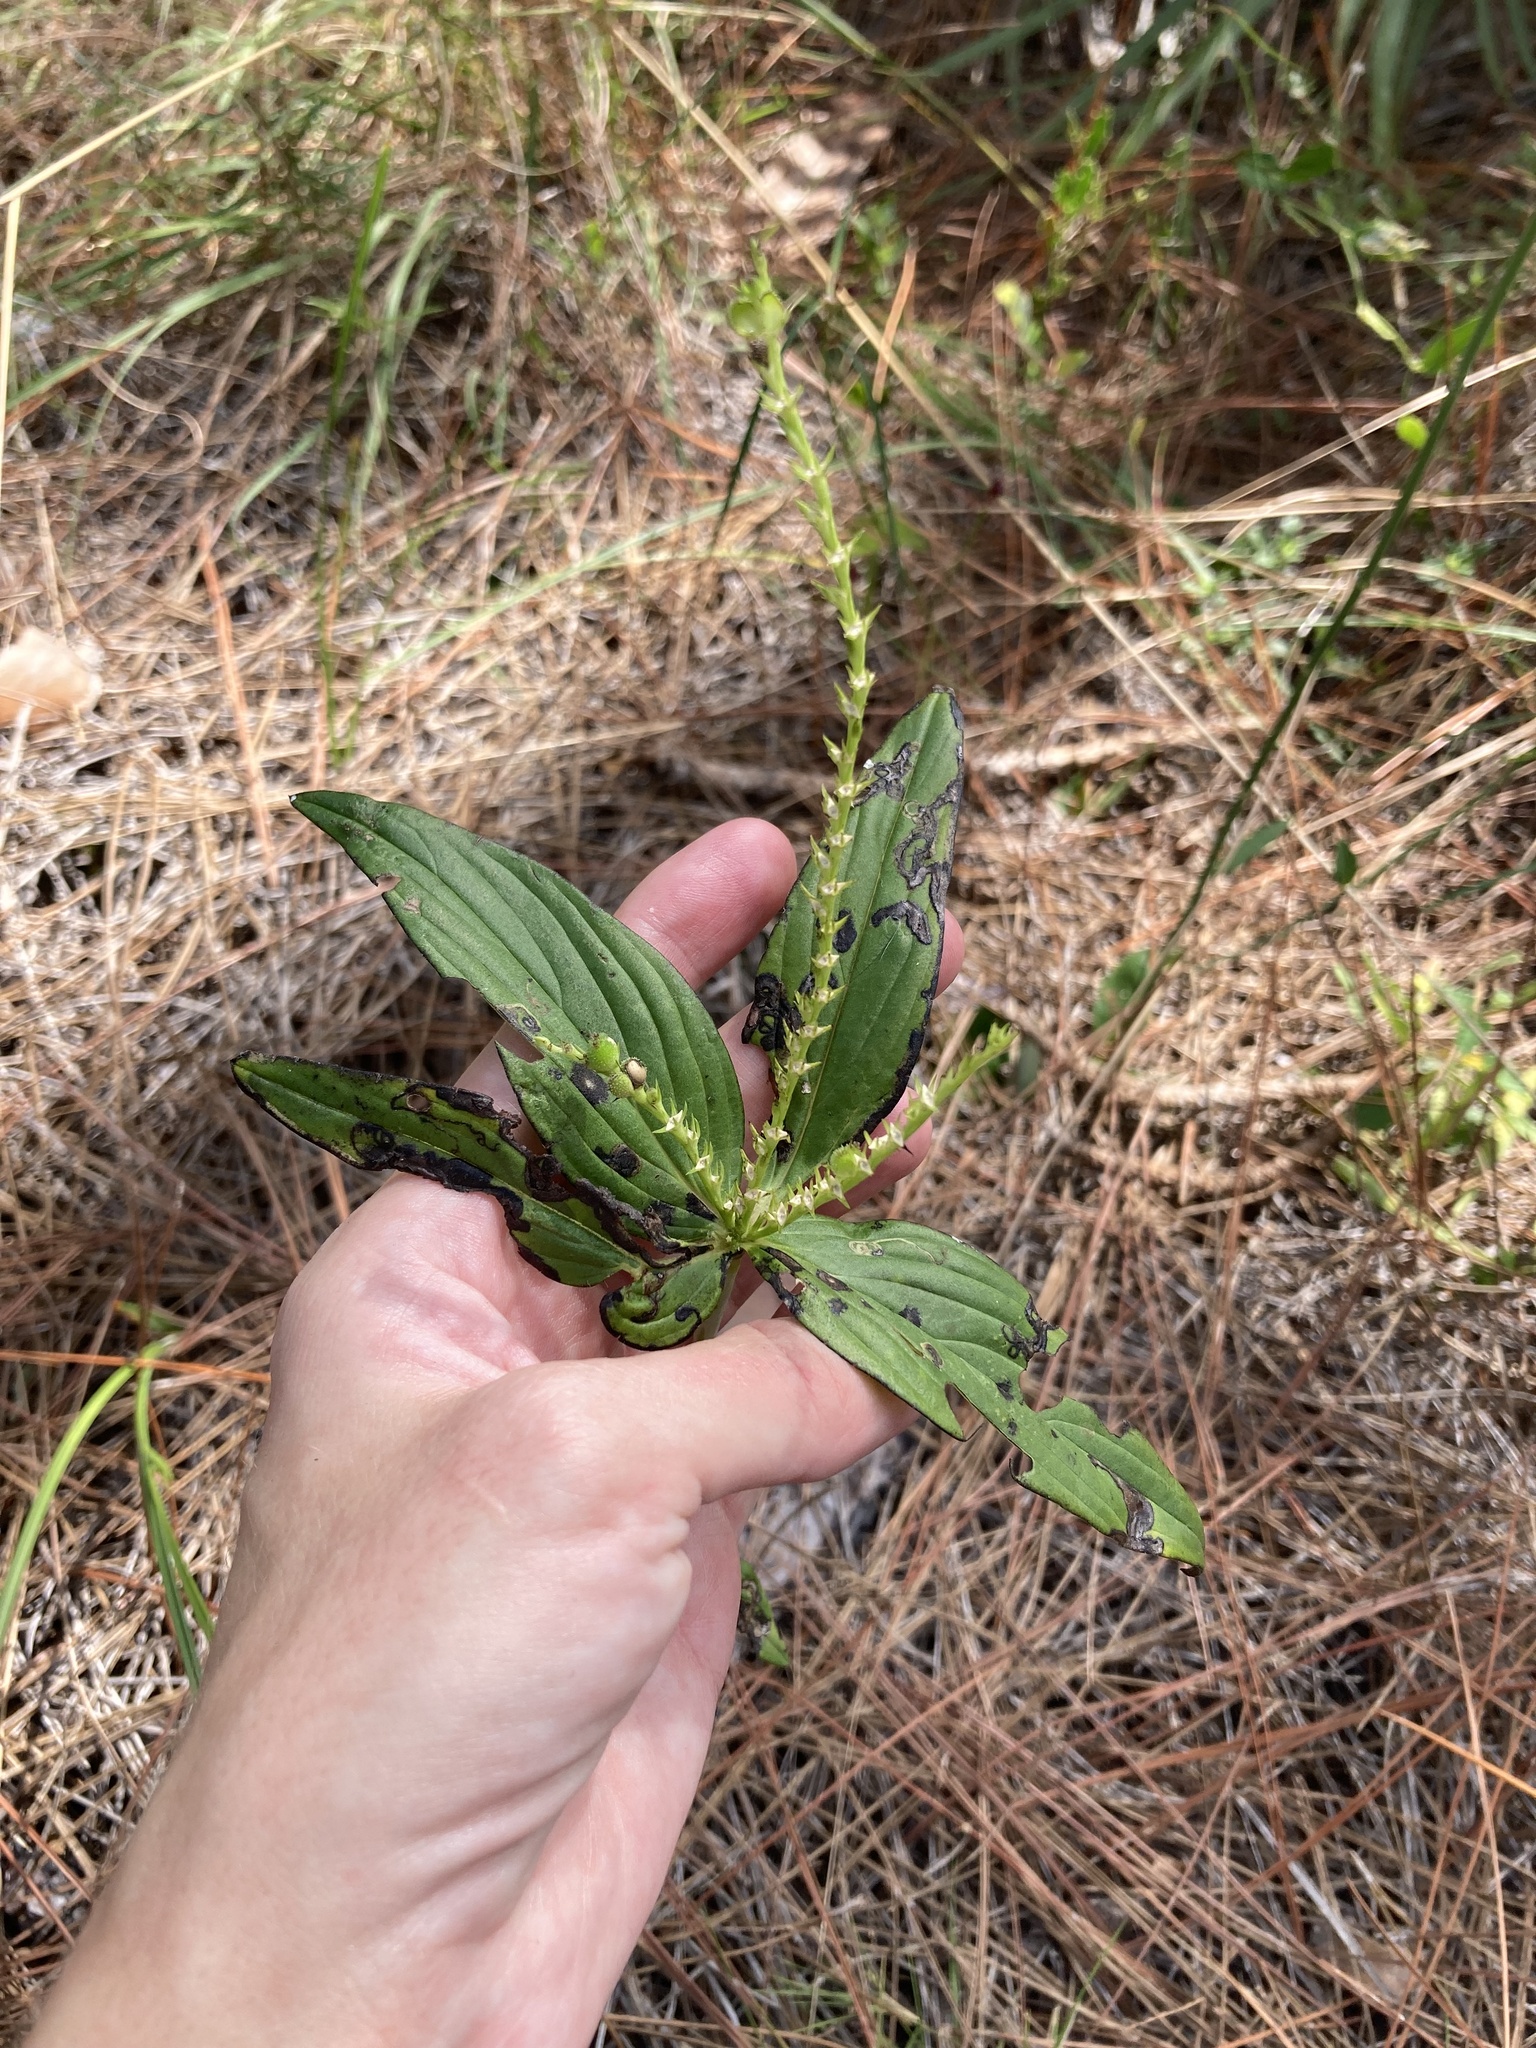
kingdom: Plantae
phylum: Tracheophyta
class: Magnoliopsida
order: Gentianales
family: Loganiaceae
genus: Spigelia
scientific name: Spigelia anthelmia
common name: West indian-pink
